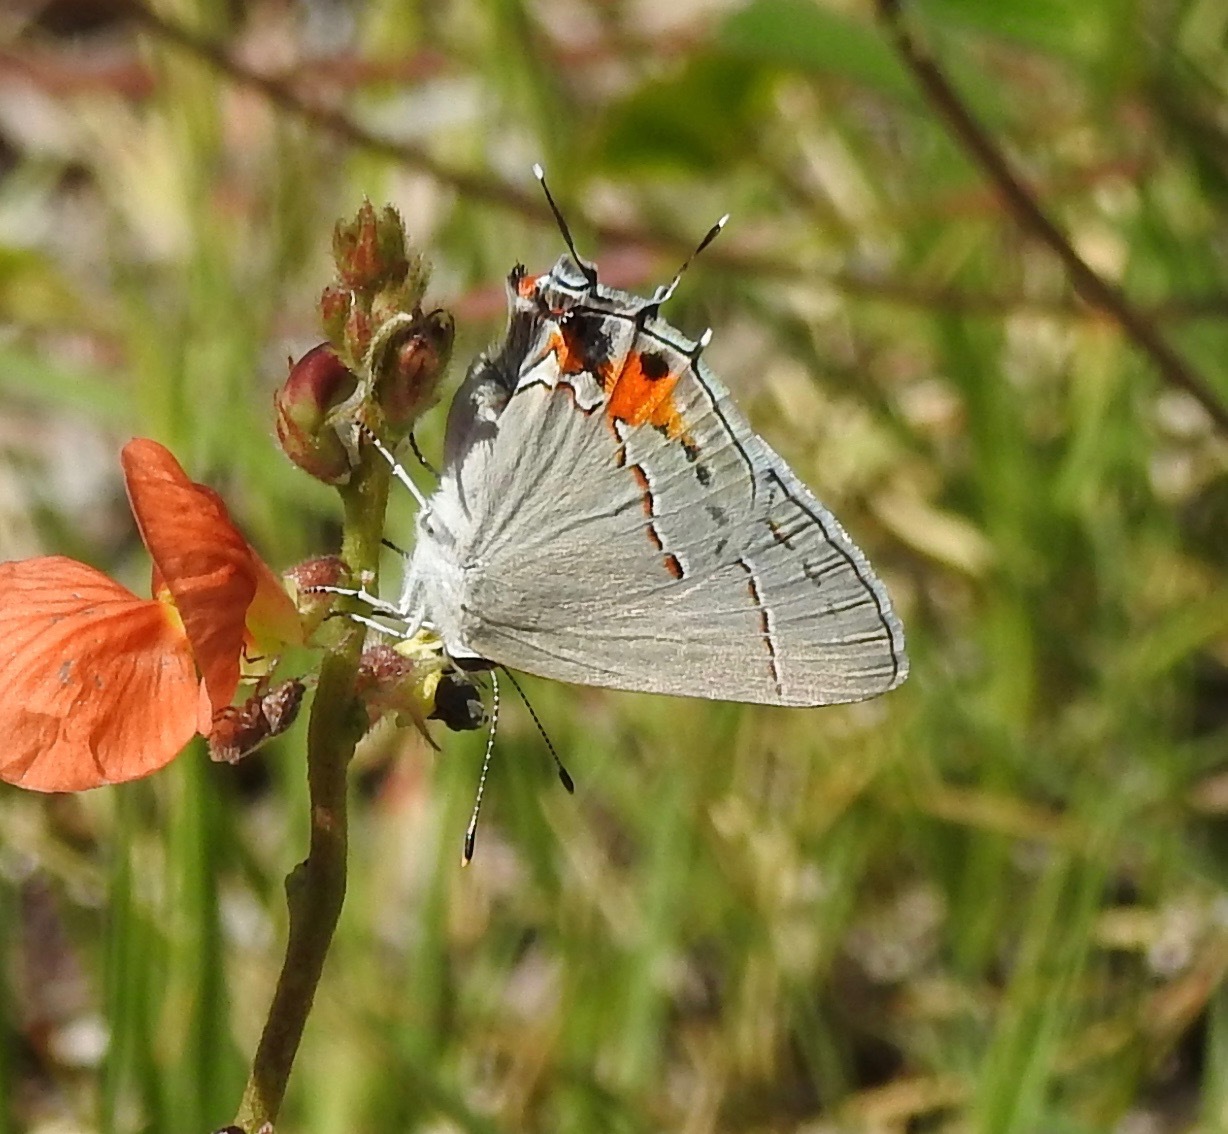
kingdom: Animalia
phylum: Arthropoda
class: Insecta
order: Lepidoptera
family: Lycaenidae
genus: Strymon
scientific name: Strymon melinus
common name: Gray hairstreak
